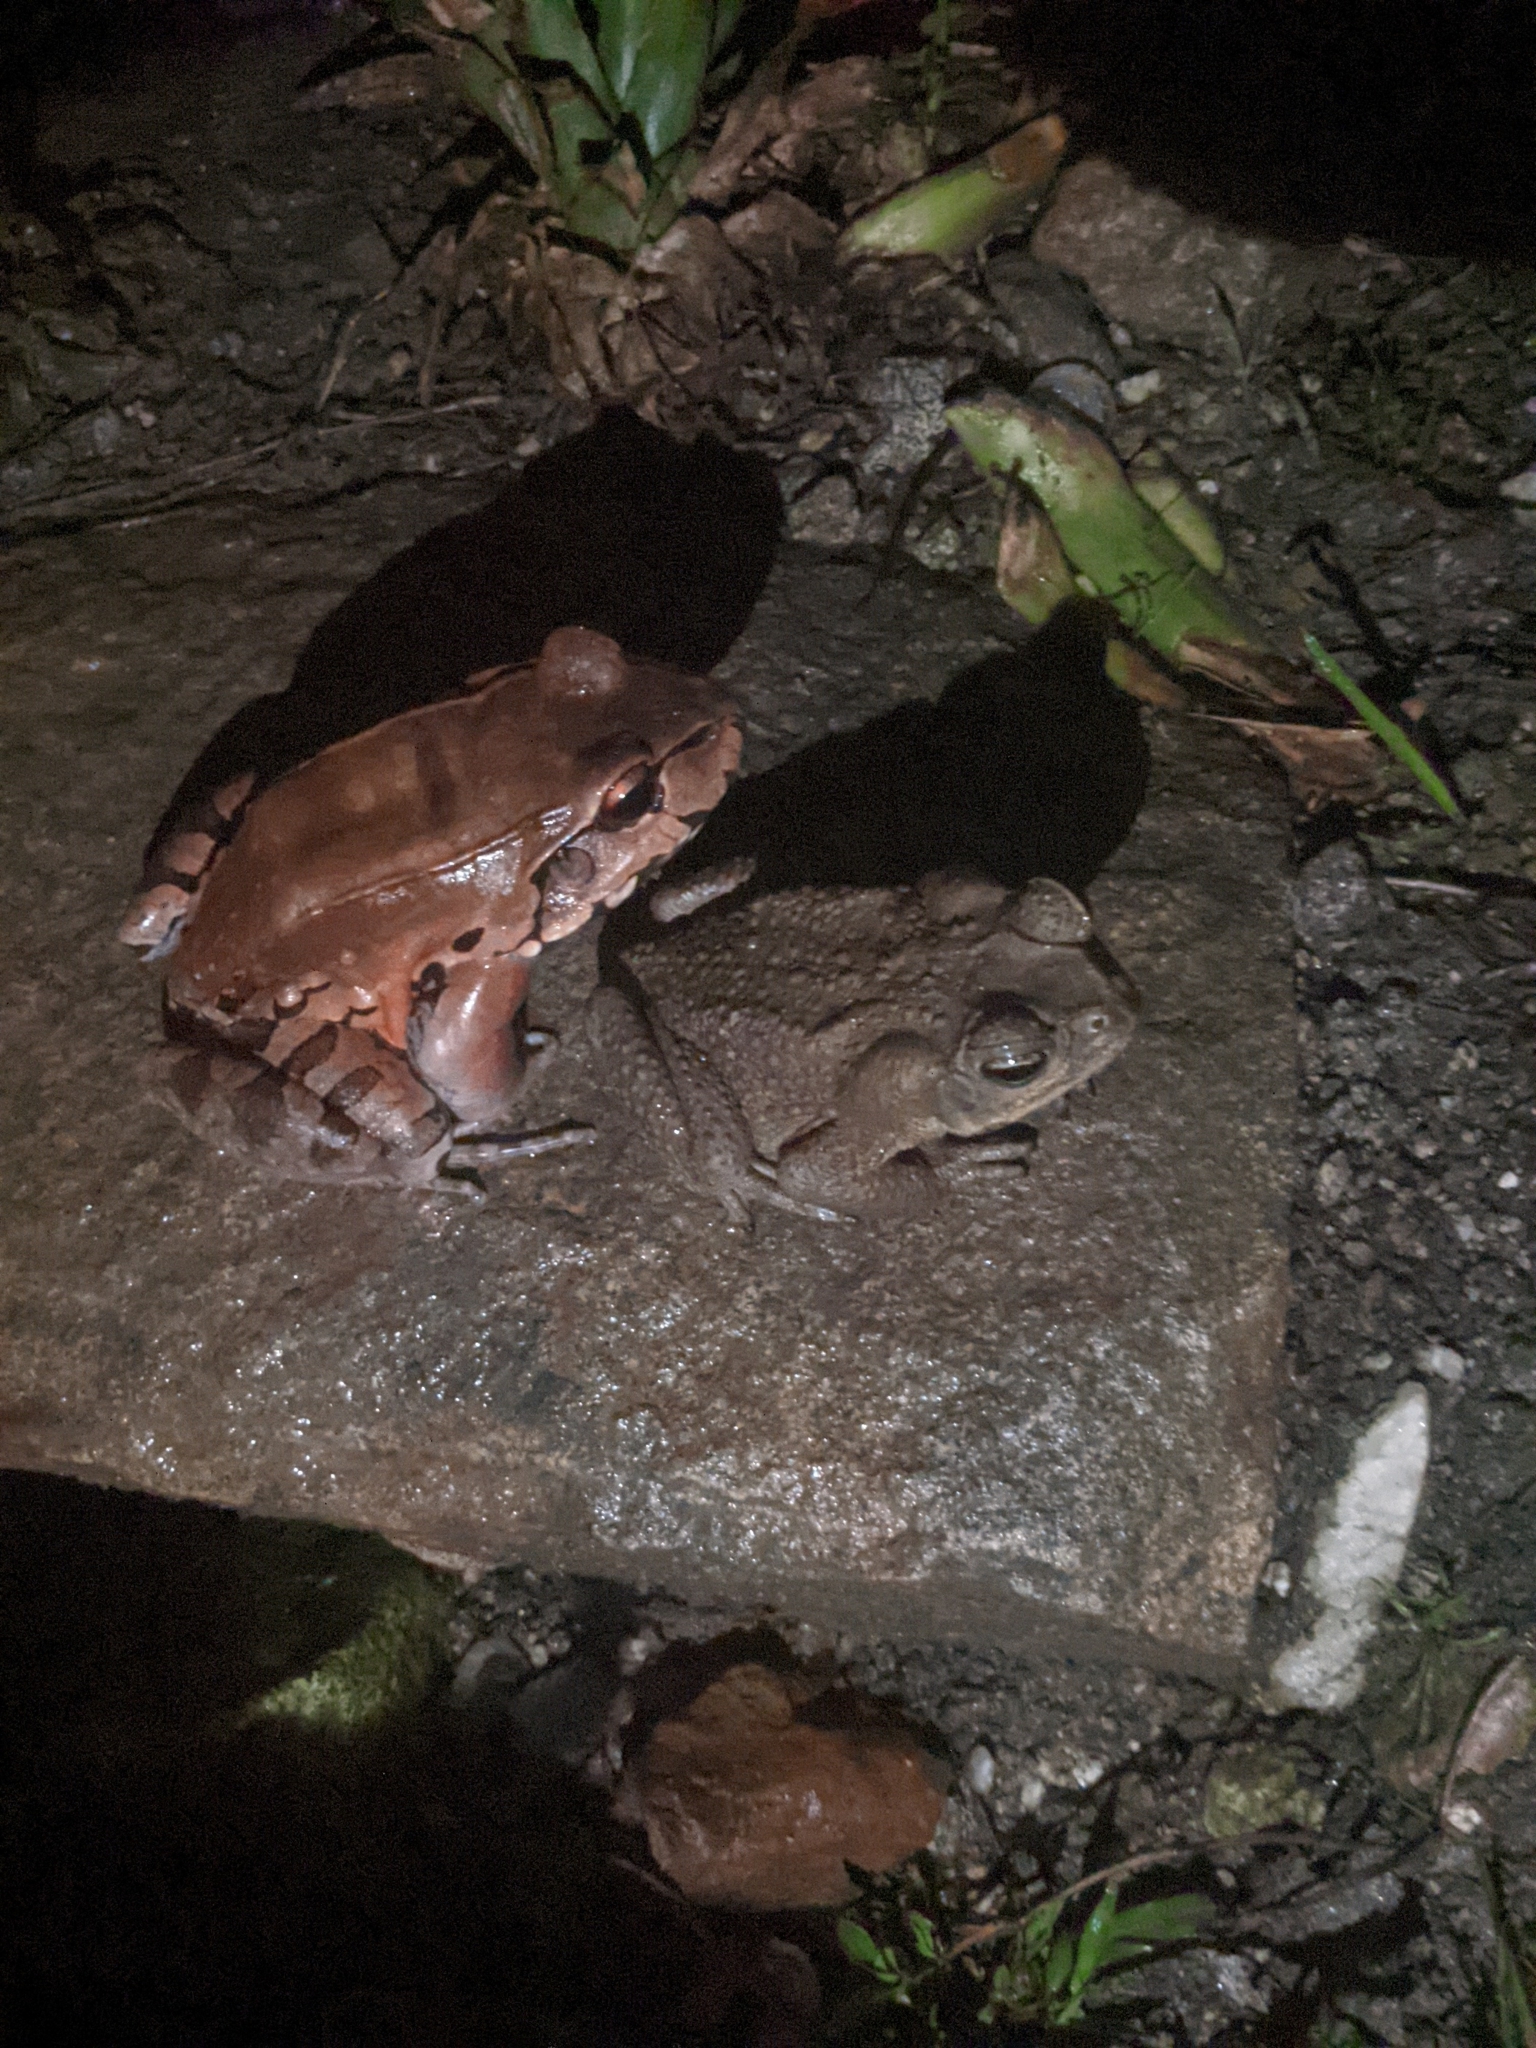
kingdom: Animalia
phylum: Chordata
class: Amphibia
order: Anura
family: Leptodactylidae
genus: Leptodactylus
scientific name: Leptodactylus savagei
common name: Savage's thin-toed frog
